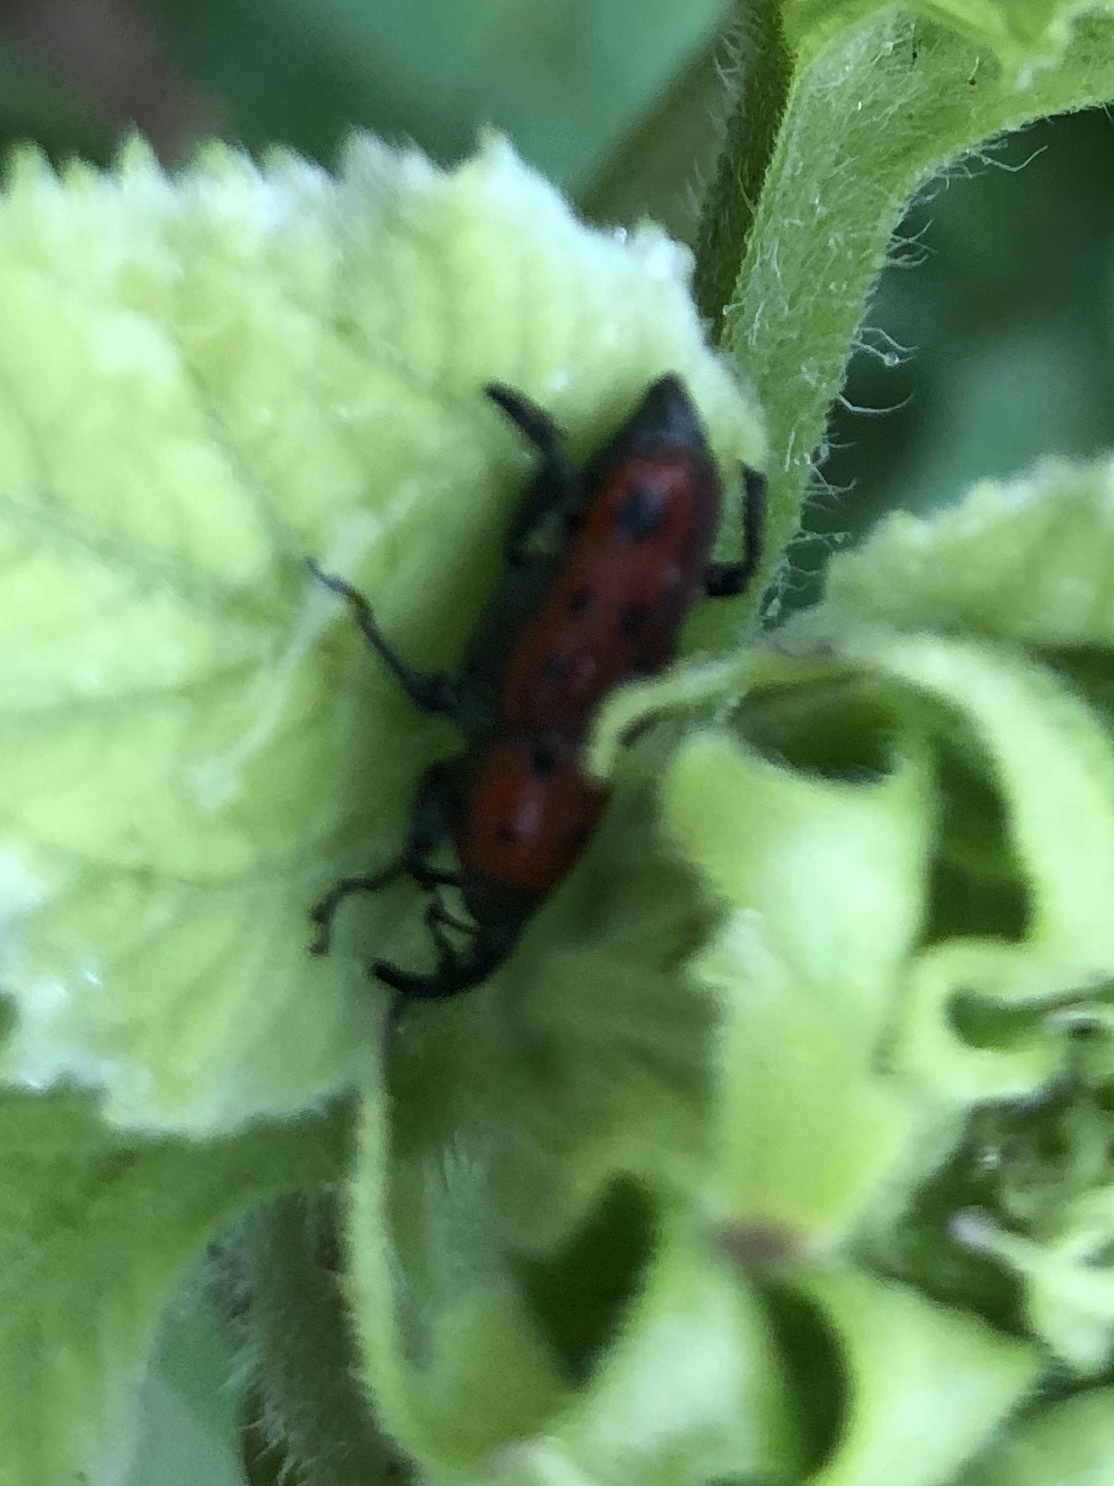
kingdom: Animalia
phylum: Arthropoda
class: Insecta
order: Coleoptera
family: Dryophthoridae
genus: Rhodobaenus
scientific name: Rhodobaenus tredecimpunctatus
